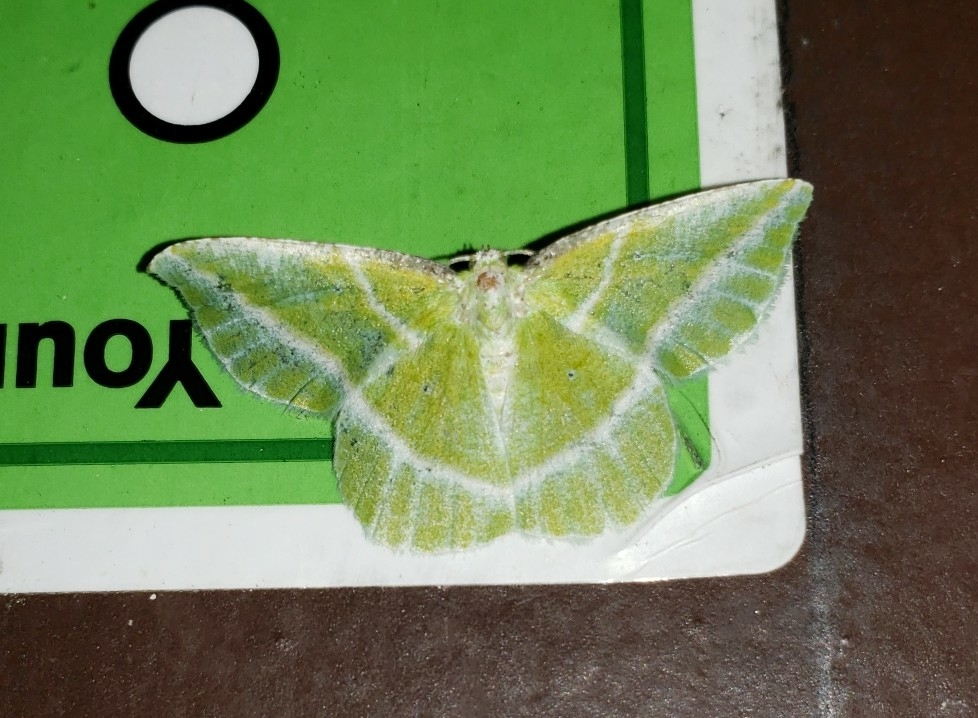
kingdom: Animalia
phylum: Arthropoda
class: Insecta
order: Lepidoptera
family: Geometridae
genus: Dichorda
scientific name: Dichorda iridaria
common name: Showy emerald
